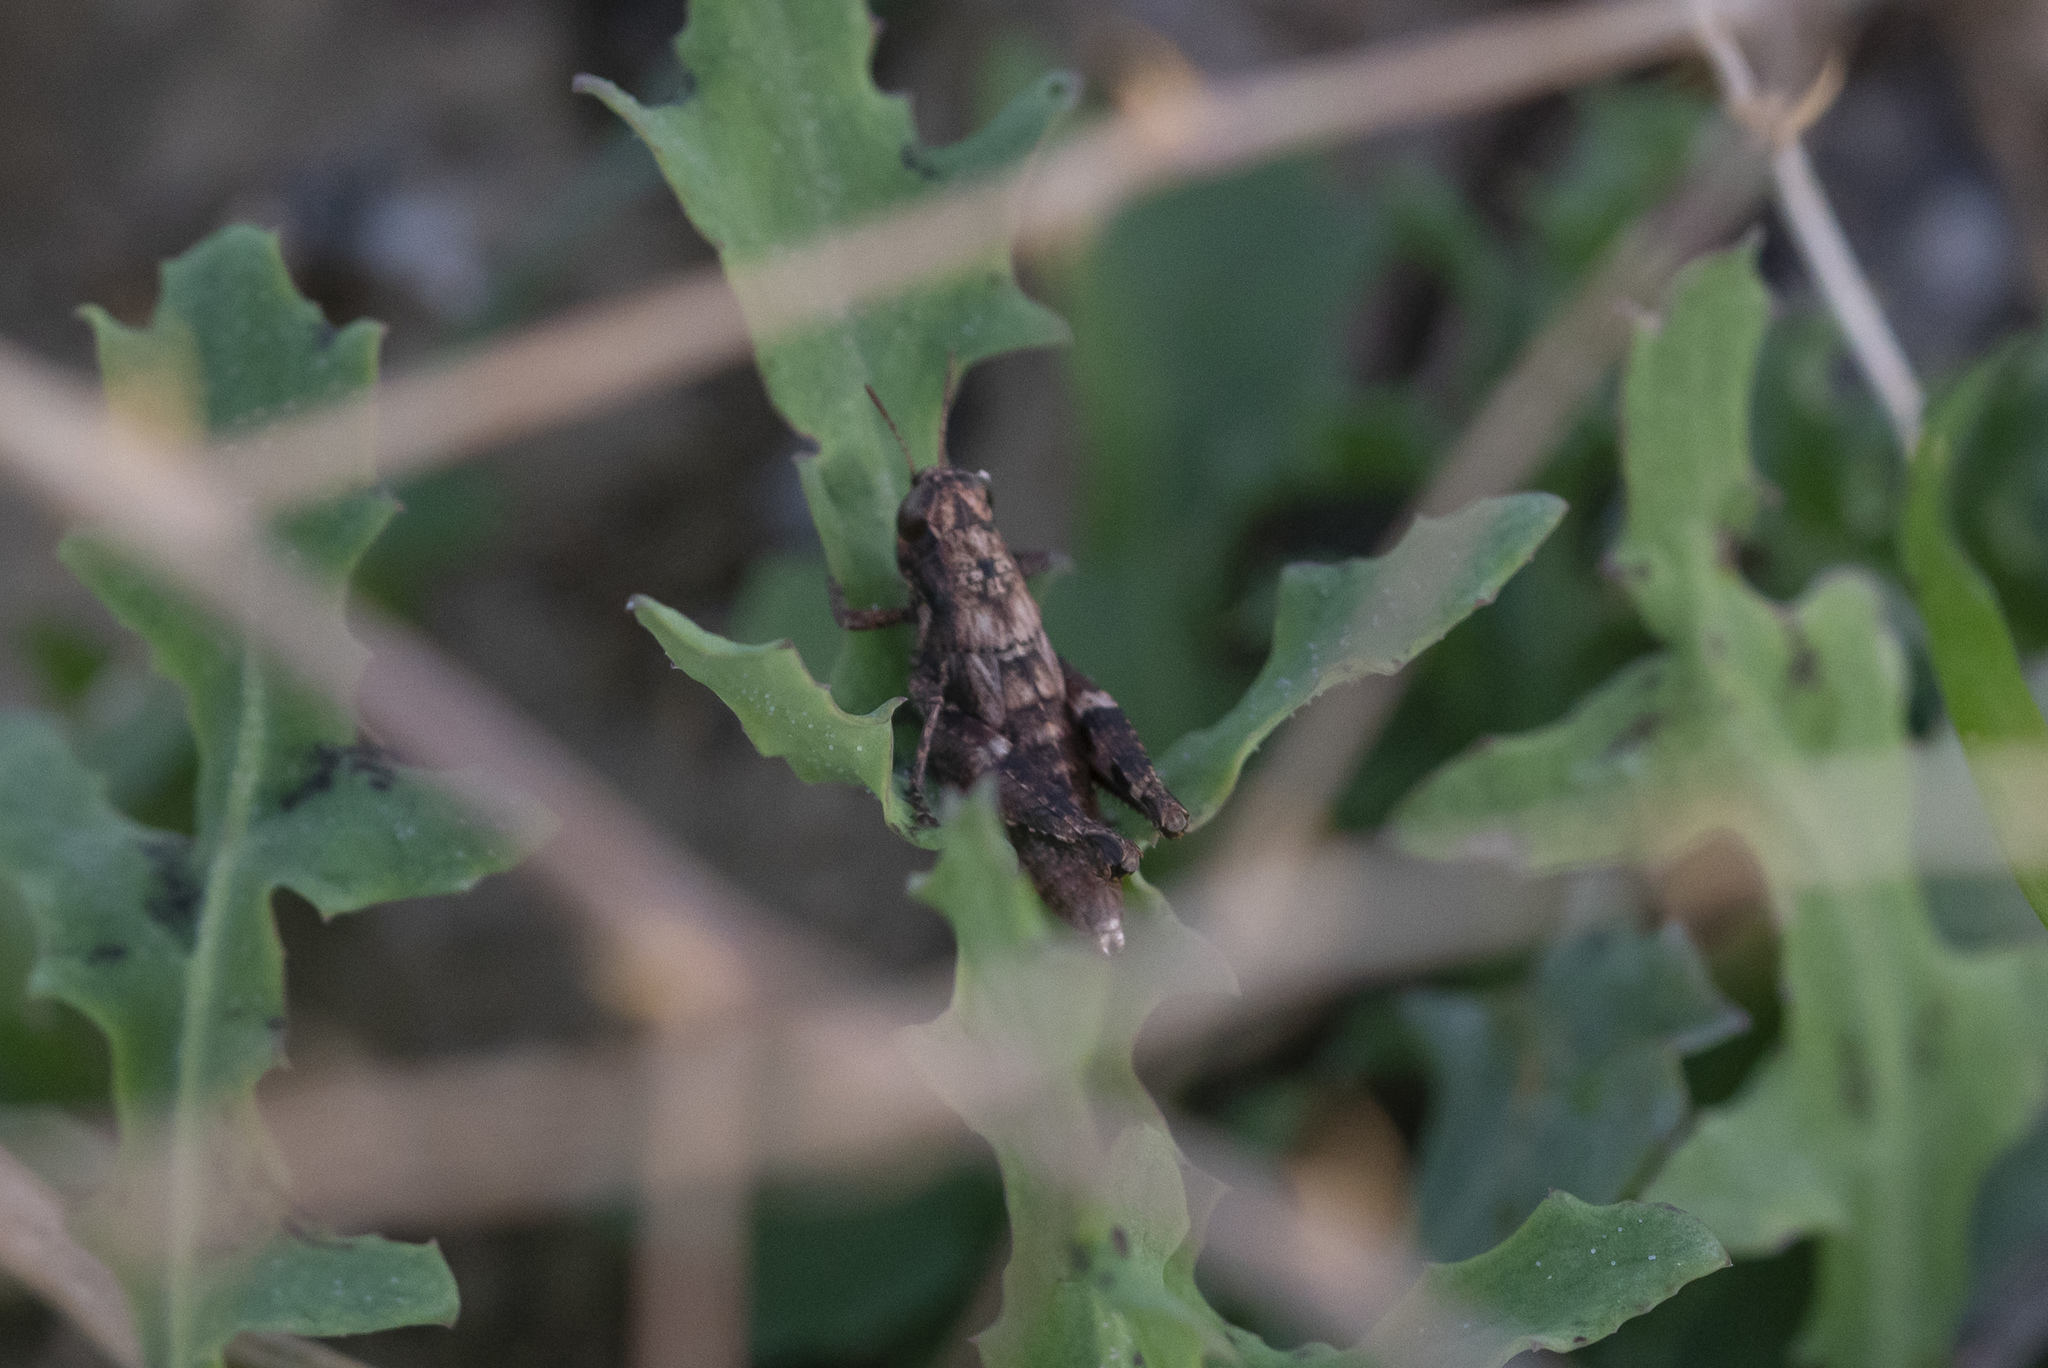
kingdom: Animalia
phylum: Arthropoda
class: Insecta
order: Orthoptera
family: Acrididae
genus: Pezotettix
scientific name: Pezotettix lagoi
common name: Rhodes maquis grasshopper
